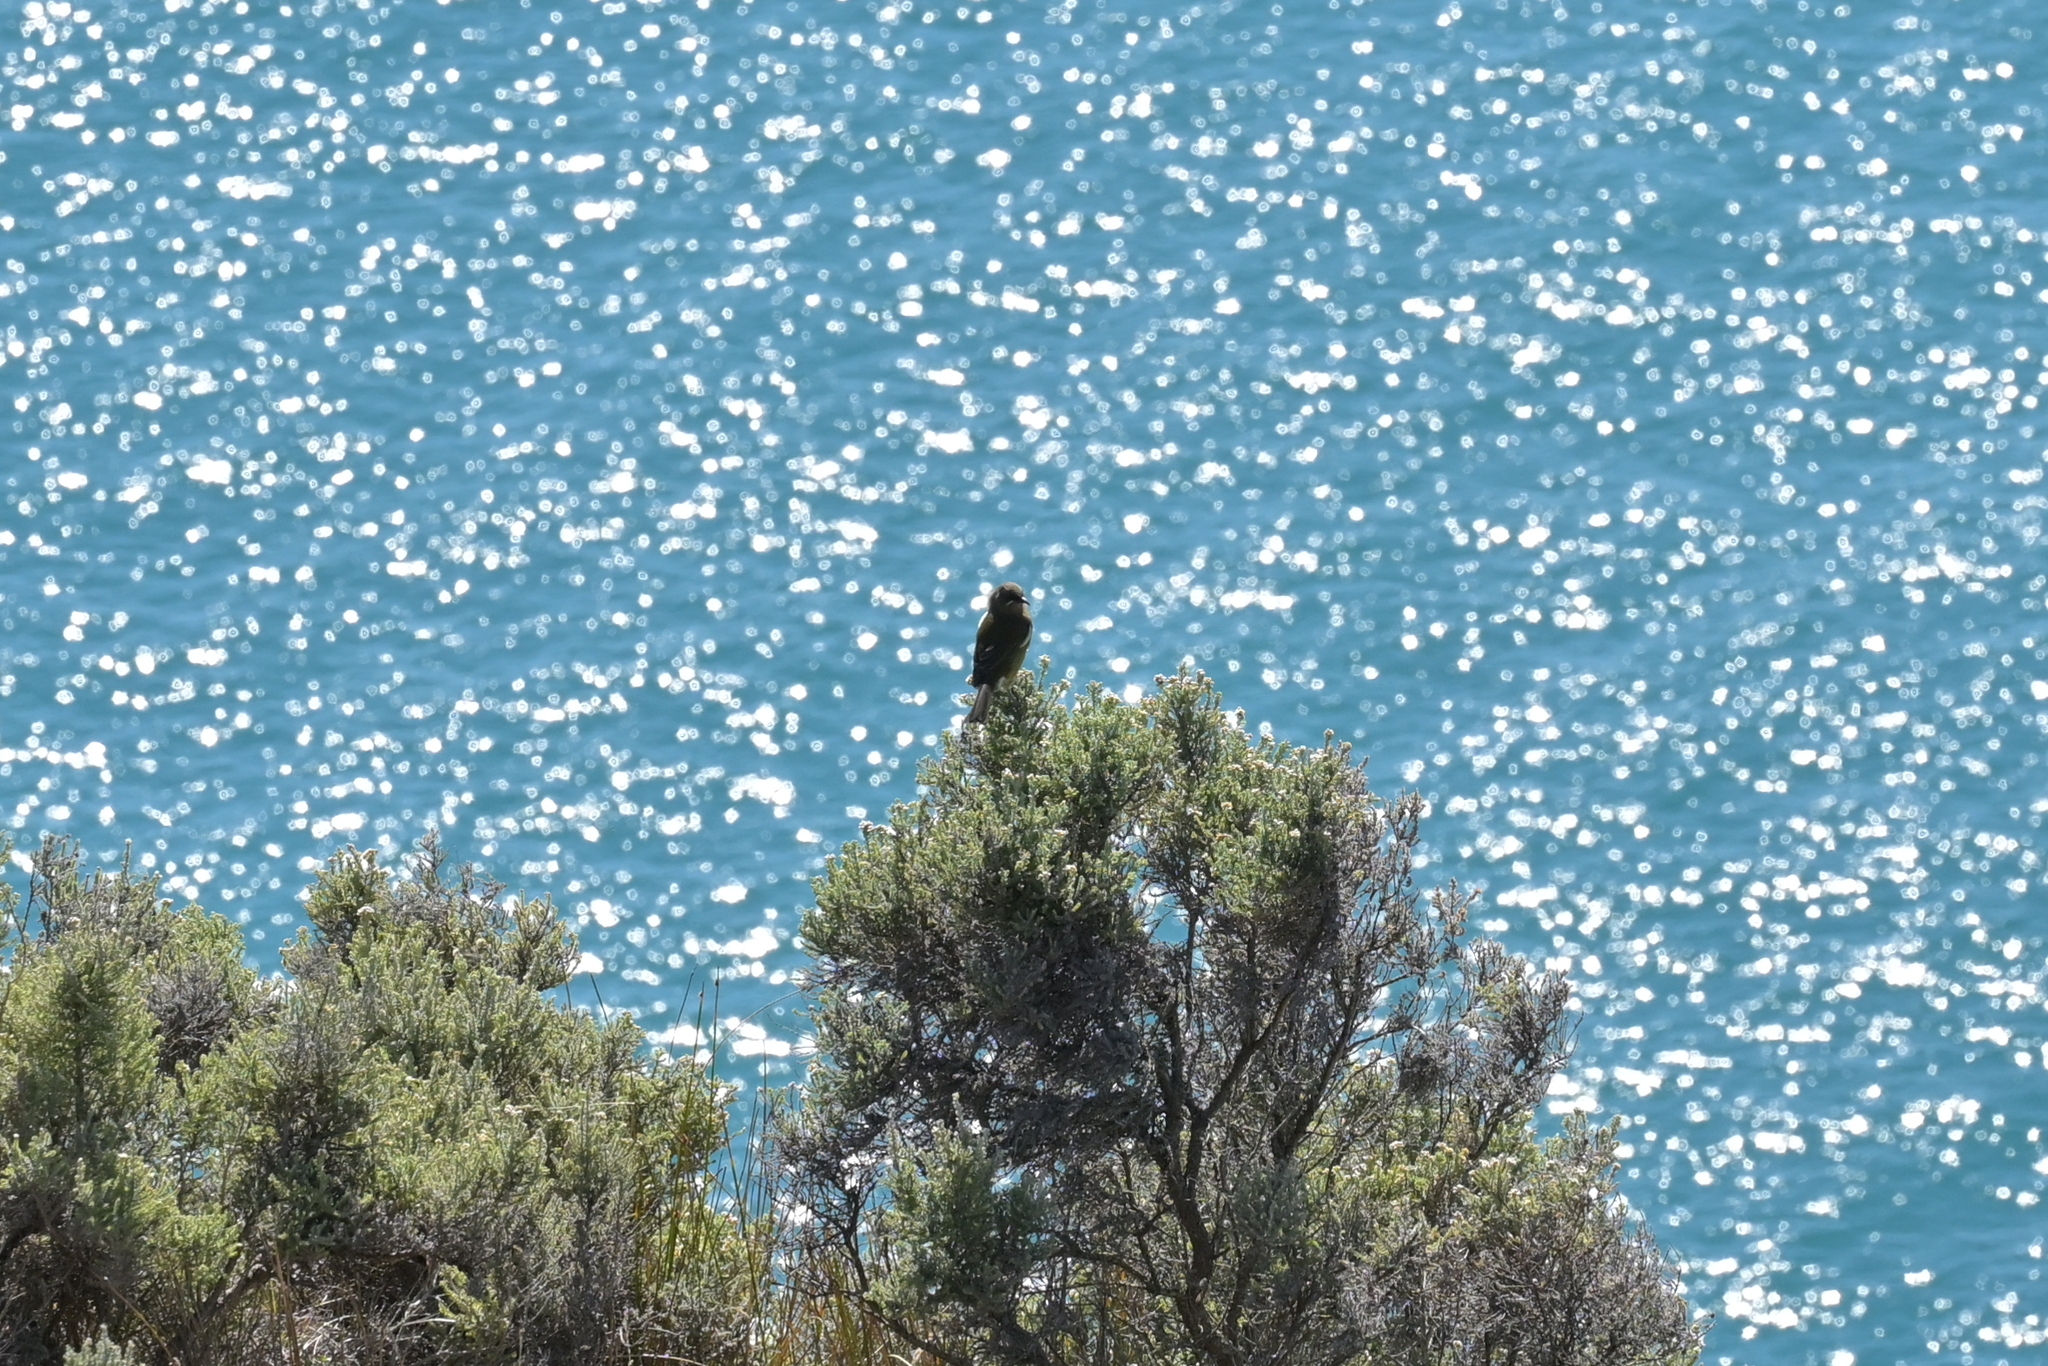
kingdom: Animalia
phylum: Chordata
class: Aves
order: Passeriformes
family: Meliphagidae
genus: Anthornis
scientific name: Anthornis melanura
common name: New zealand bellbird
